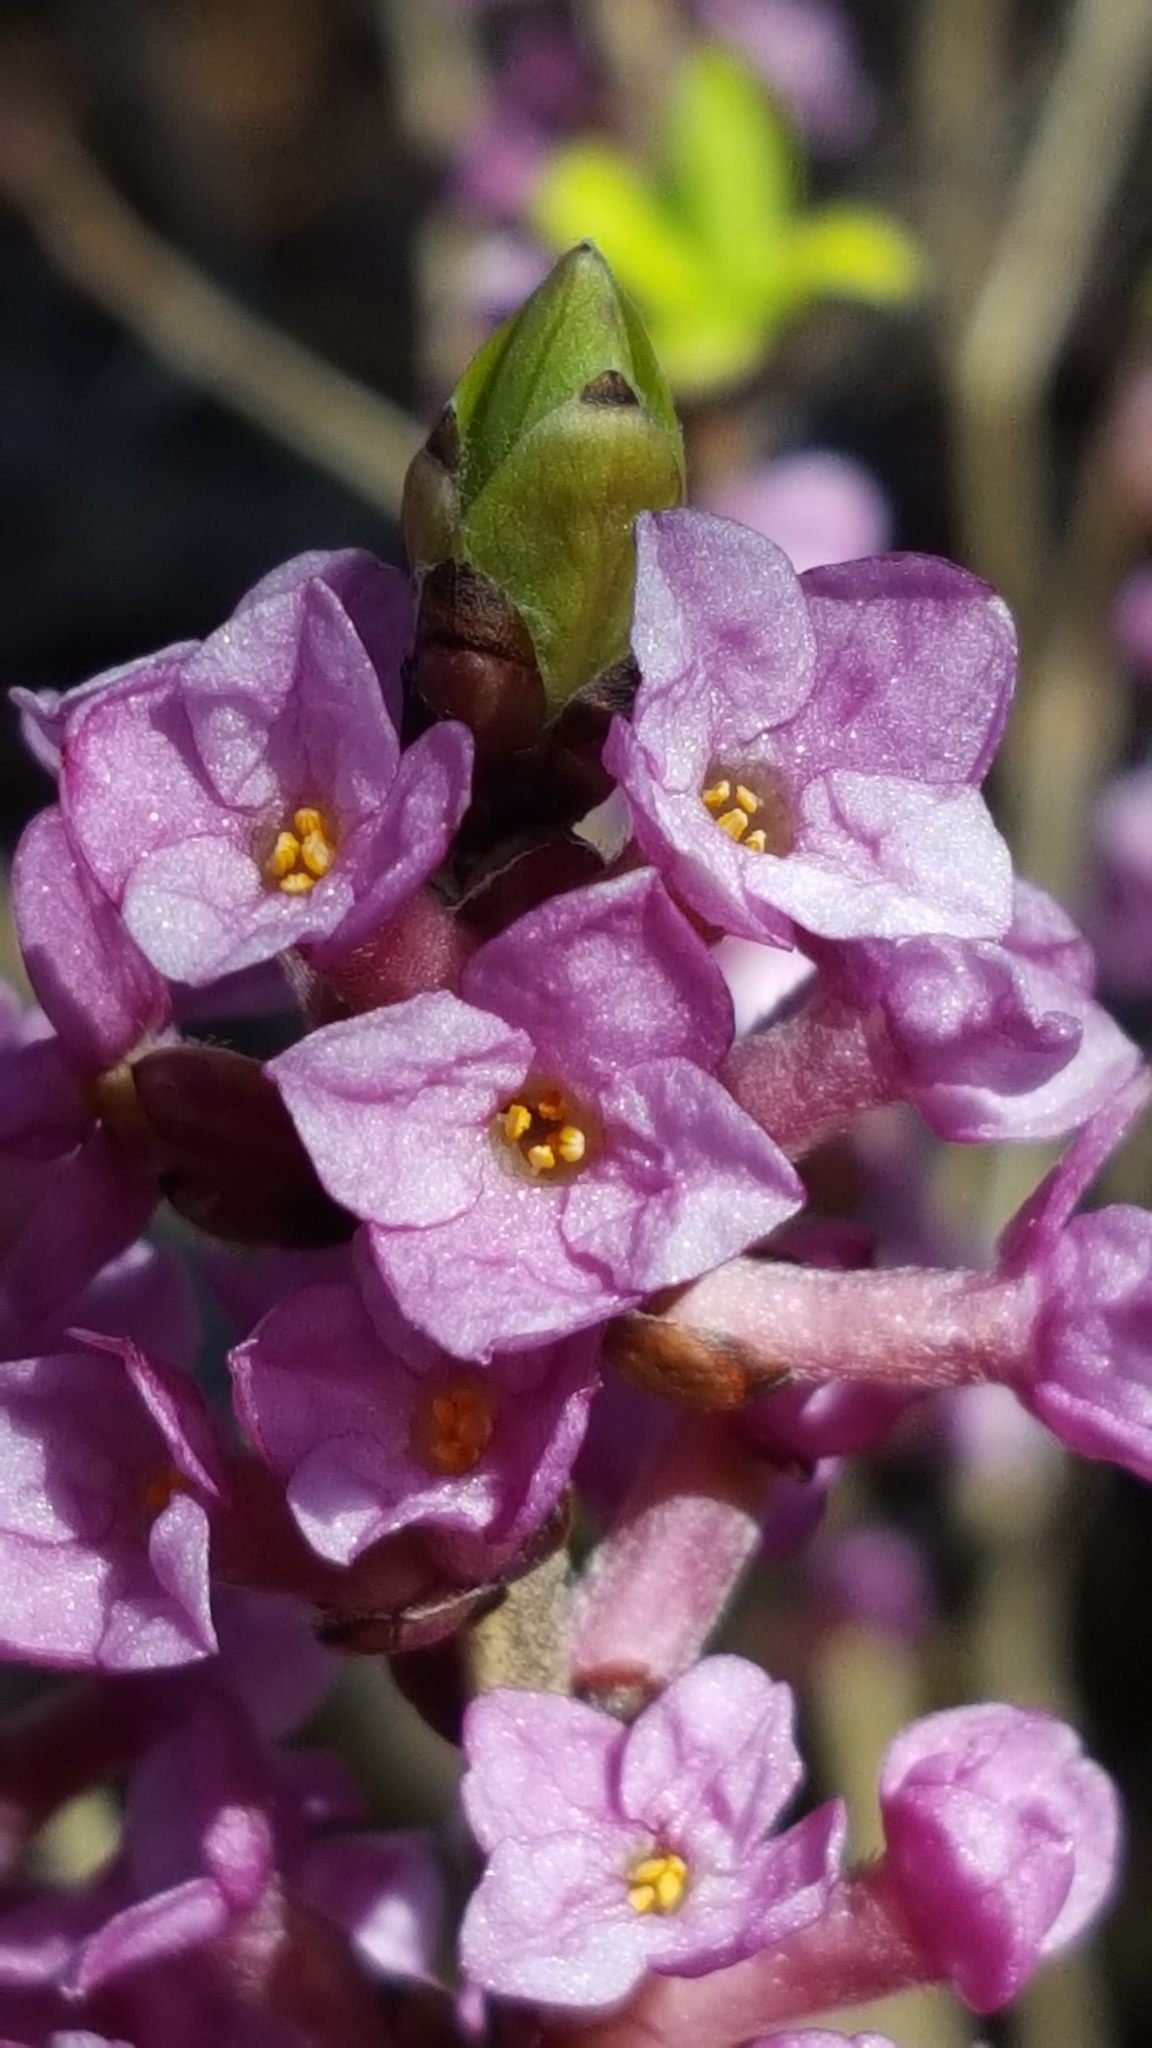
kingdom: Plantae
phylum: Tracheophyta
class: Magnoliopsida
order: Malvales
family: Thymelaeaceae
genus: Daphne
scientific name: Daphne mezereum
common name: Mezereon
